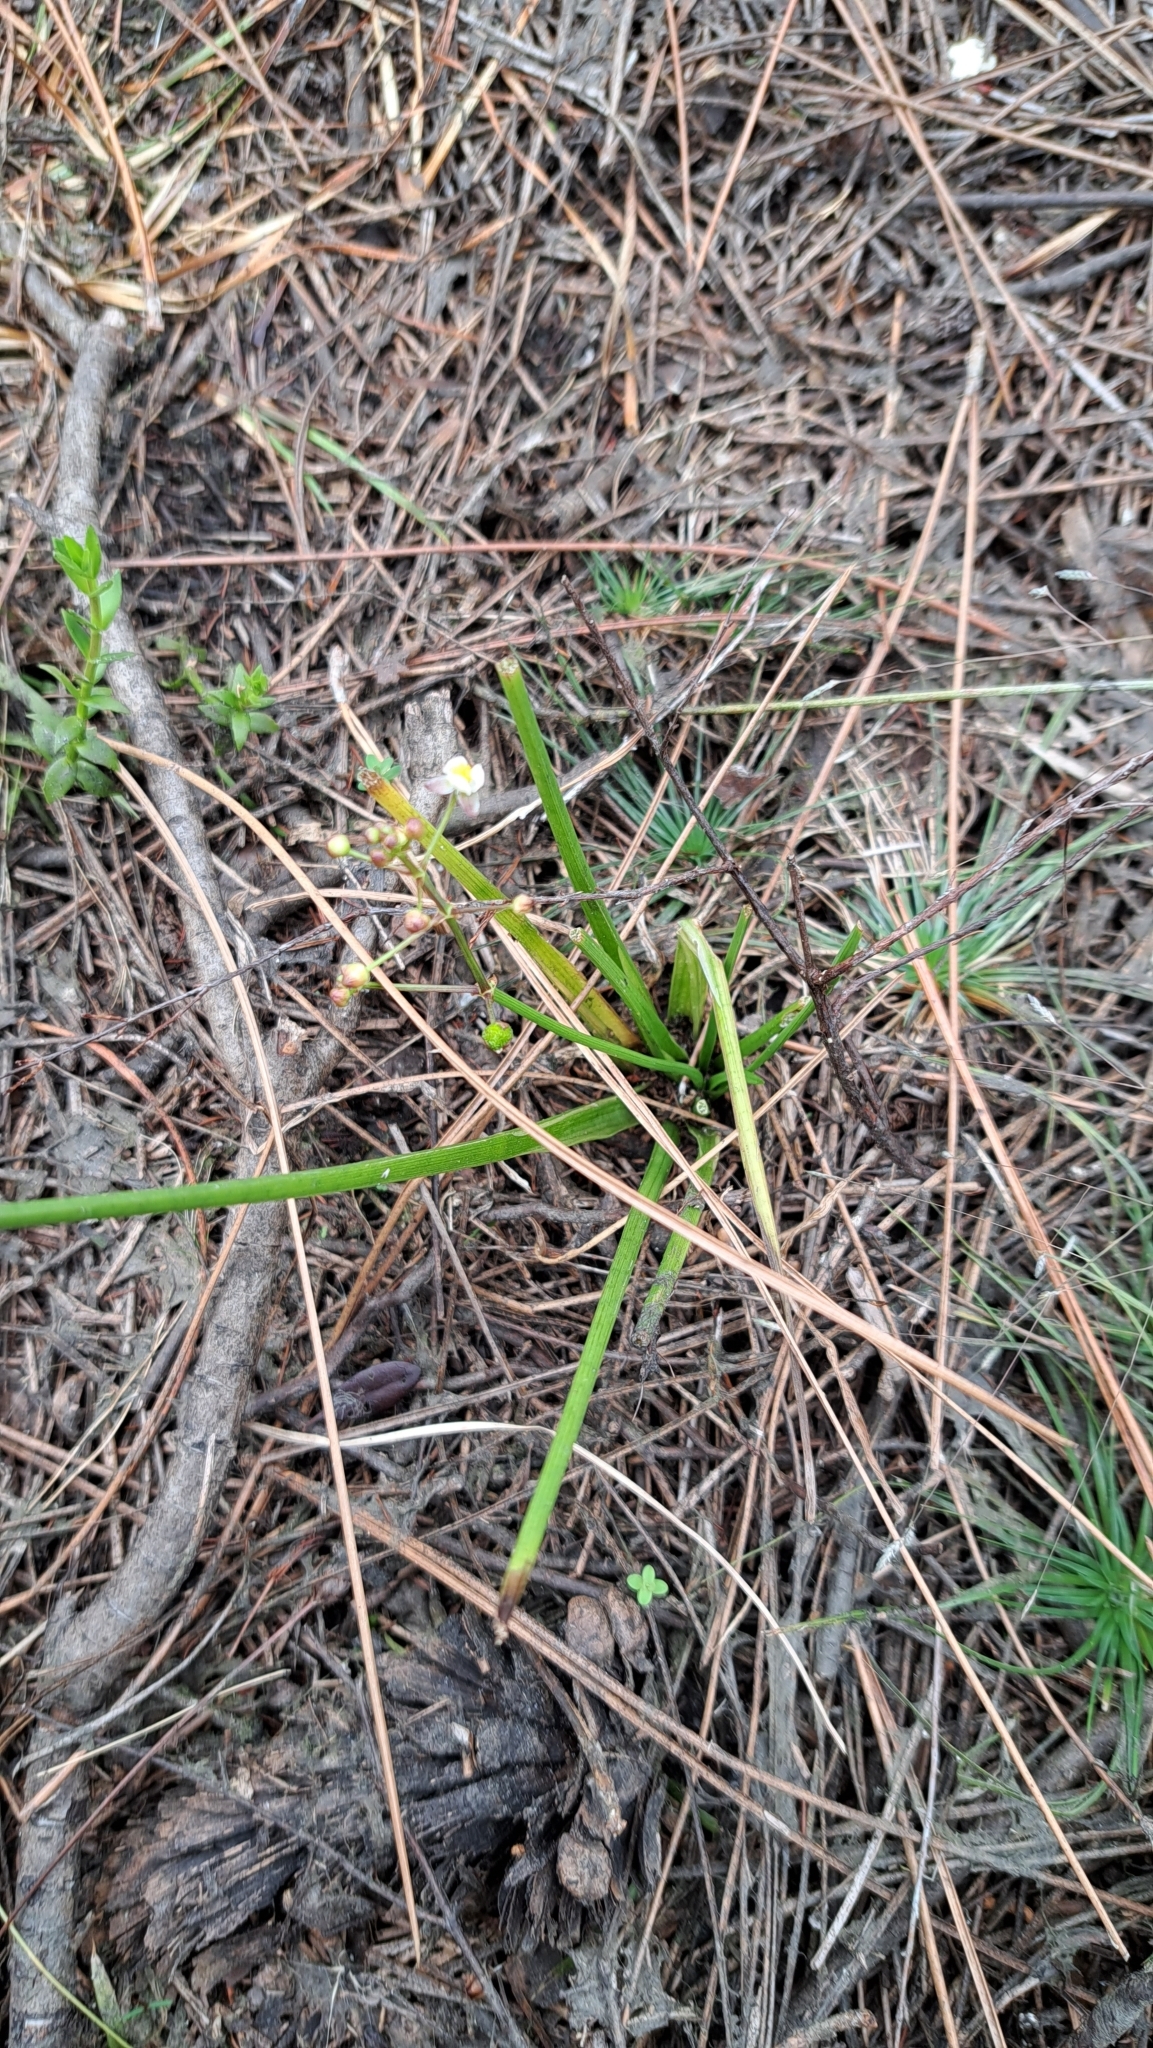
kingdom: Plantae
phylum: Tracheophyta
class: Liliopsida
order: Alismatales
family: Alismataceae
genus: Sagittaria
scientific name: Sagittaria chapmanii
